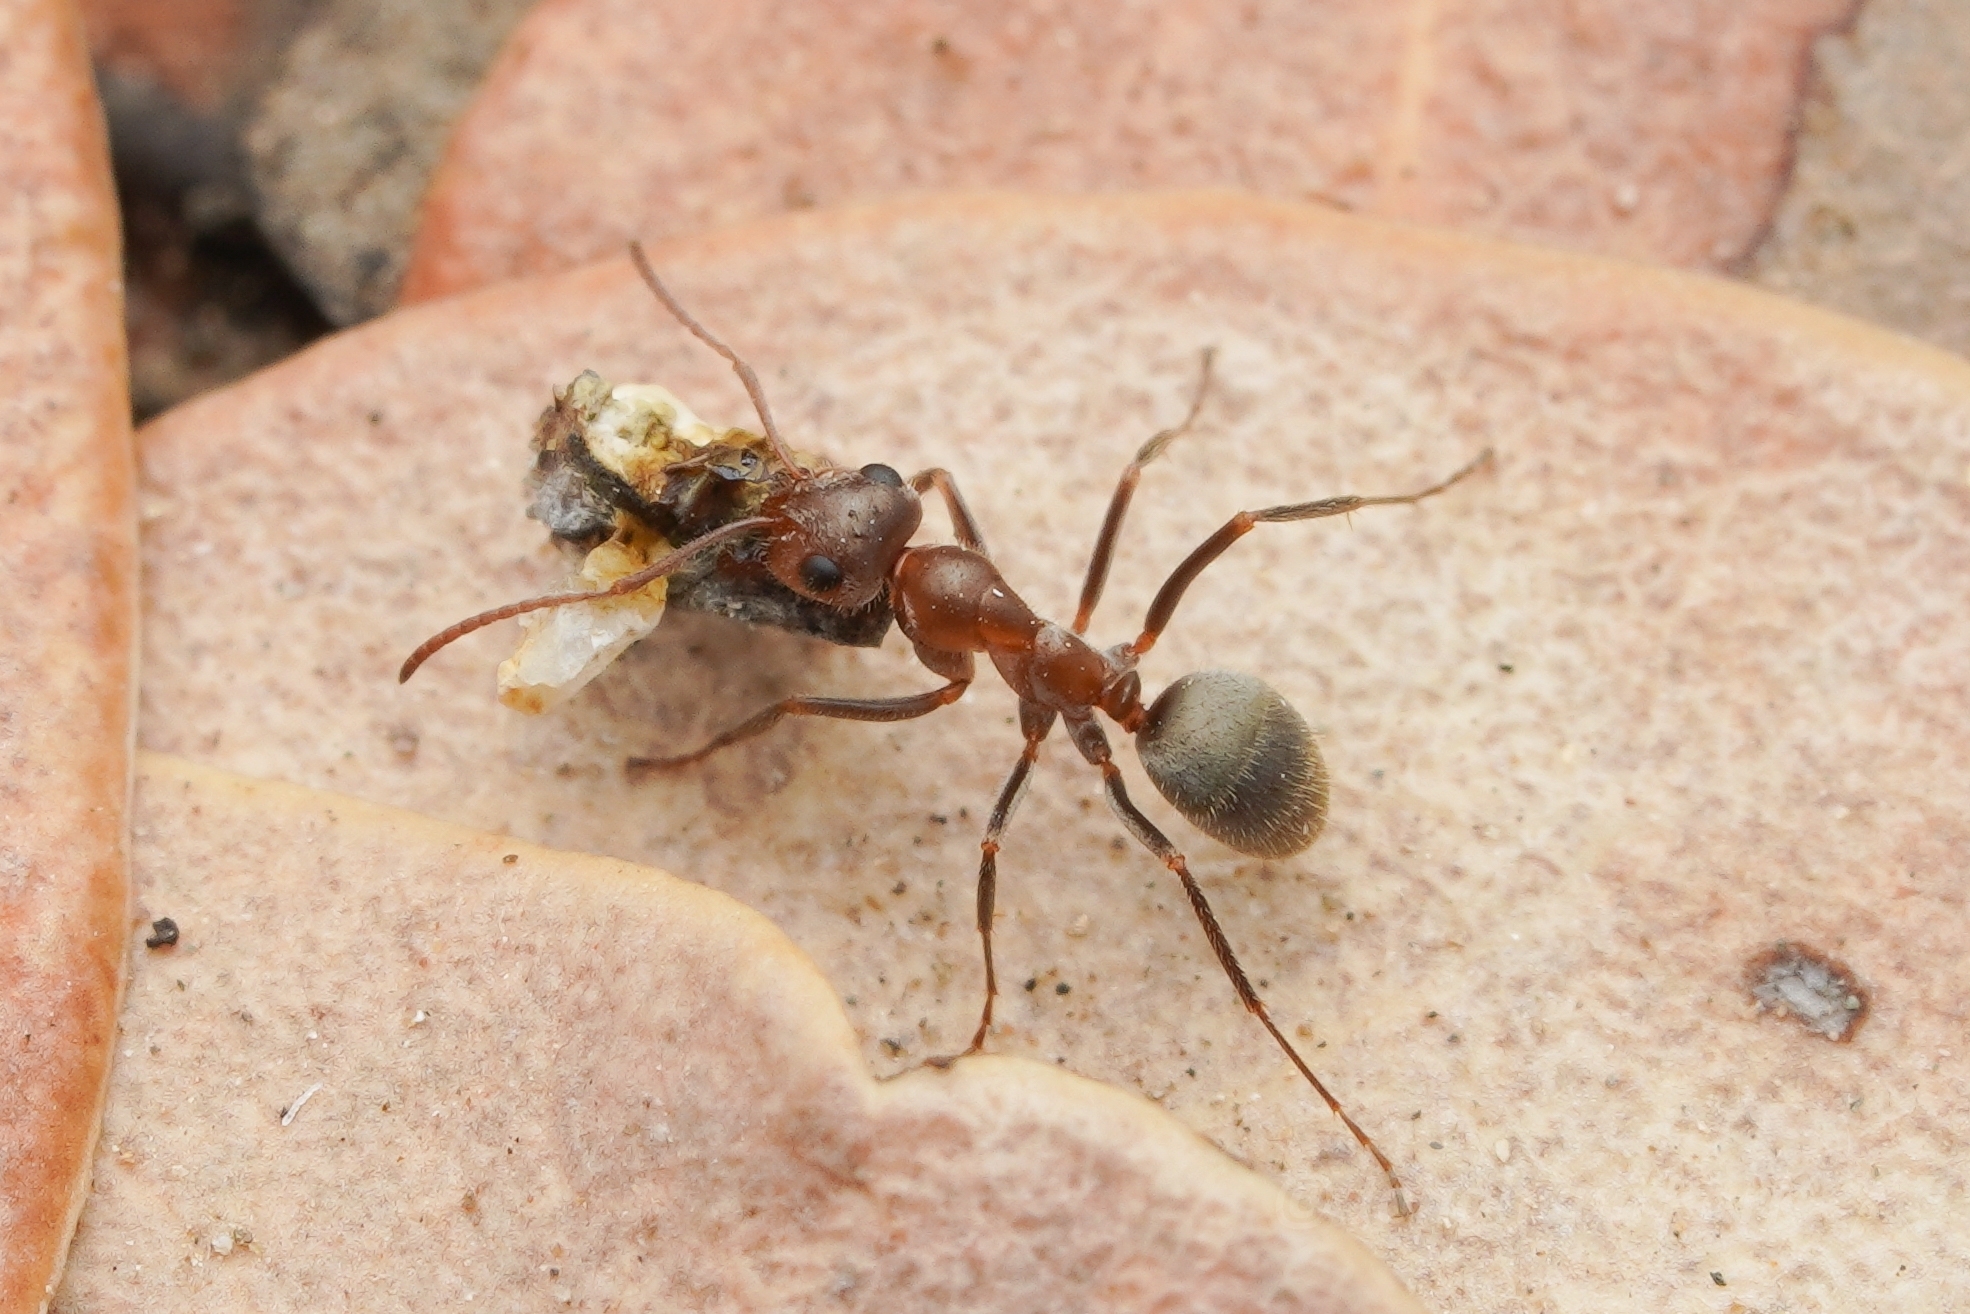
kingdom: Animalia
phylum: Arthropoda
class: Insecta
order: Hymenoptera
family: Formicidae
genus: Formica
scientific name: Formica francoeuri
